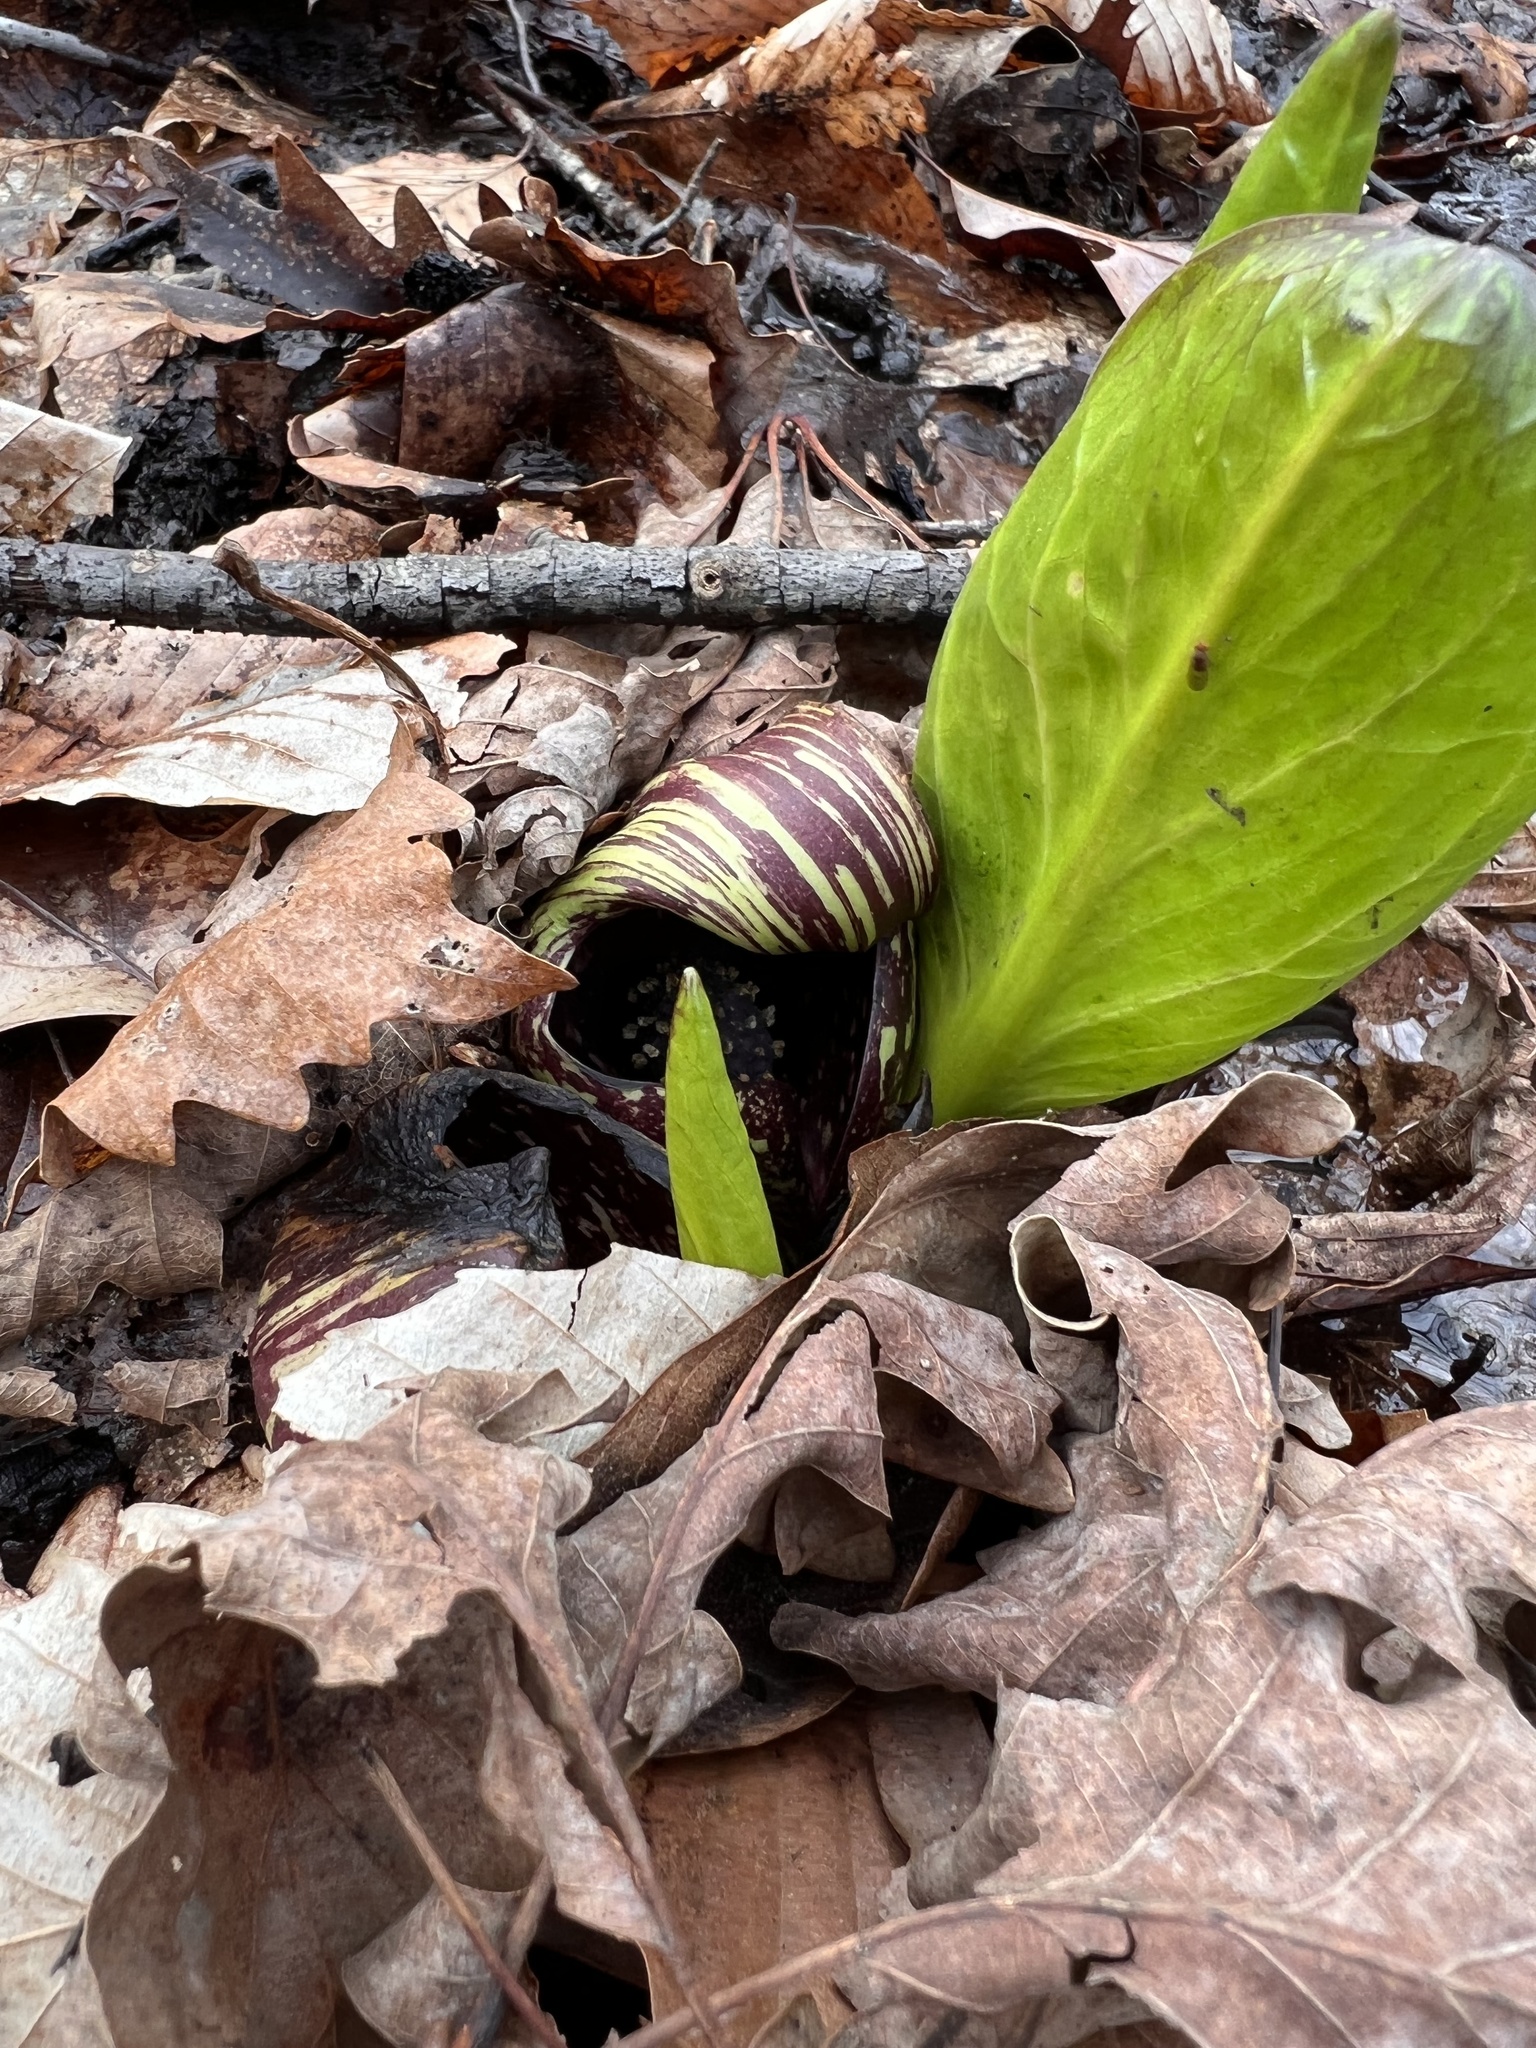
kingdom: Plantae
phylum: Tracheophyta
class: Liliopsida
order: Alismatales
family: Araceae
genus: Symplocarpus
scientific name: Symplocarpus foetidus
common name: Eastern skunk cabbage
